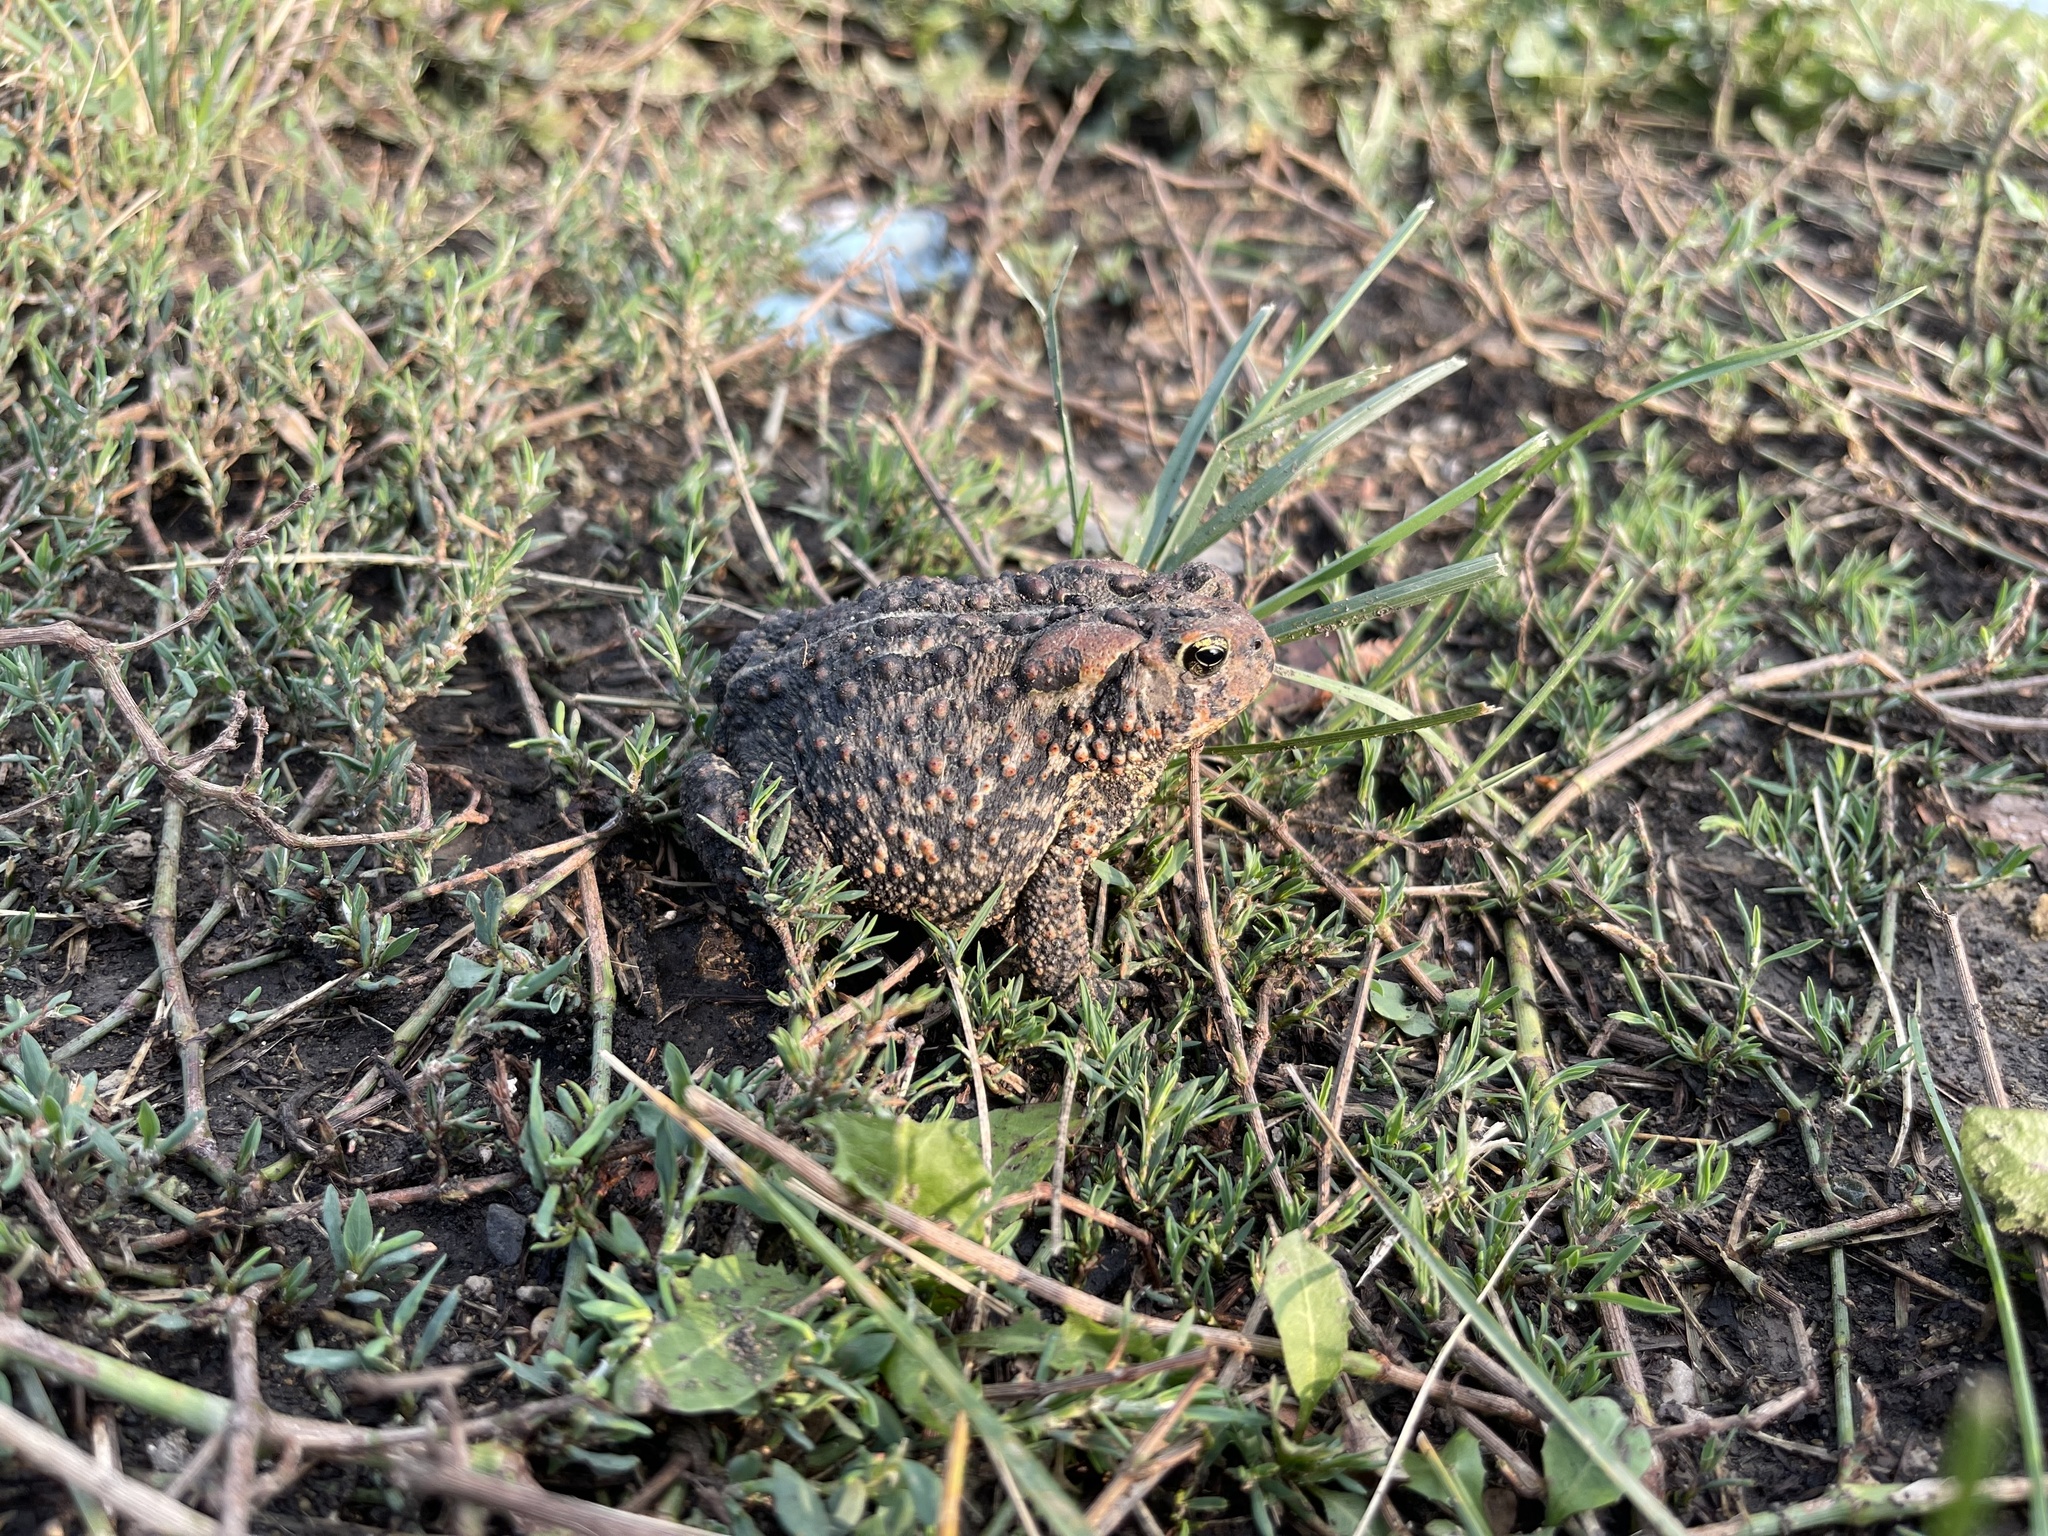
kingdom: Animalia
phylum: Chordata
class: Amphibia
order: Anura
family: Bufonidae
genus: Anaxyrus
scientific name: Anaxyrus americanus
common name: American toad
